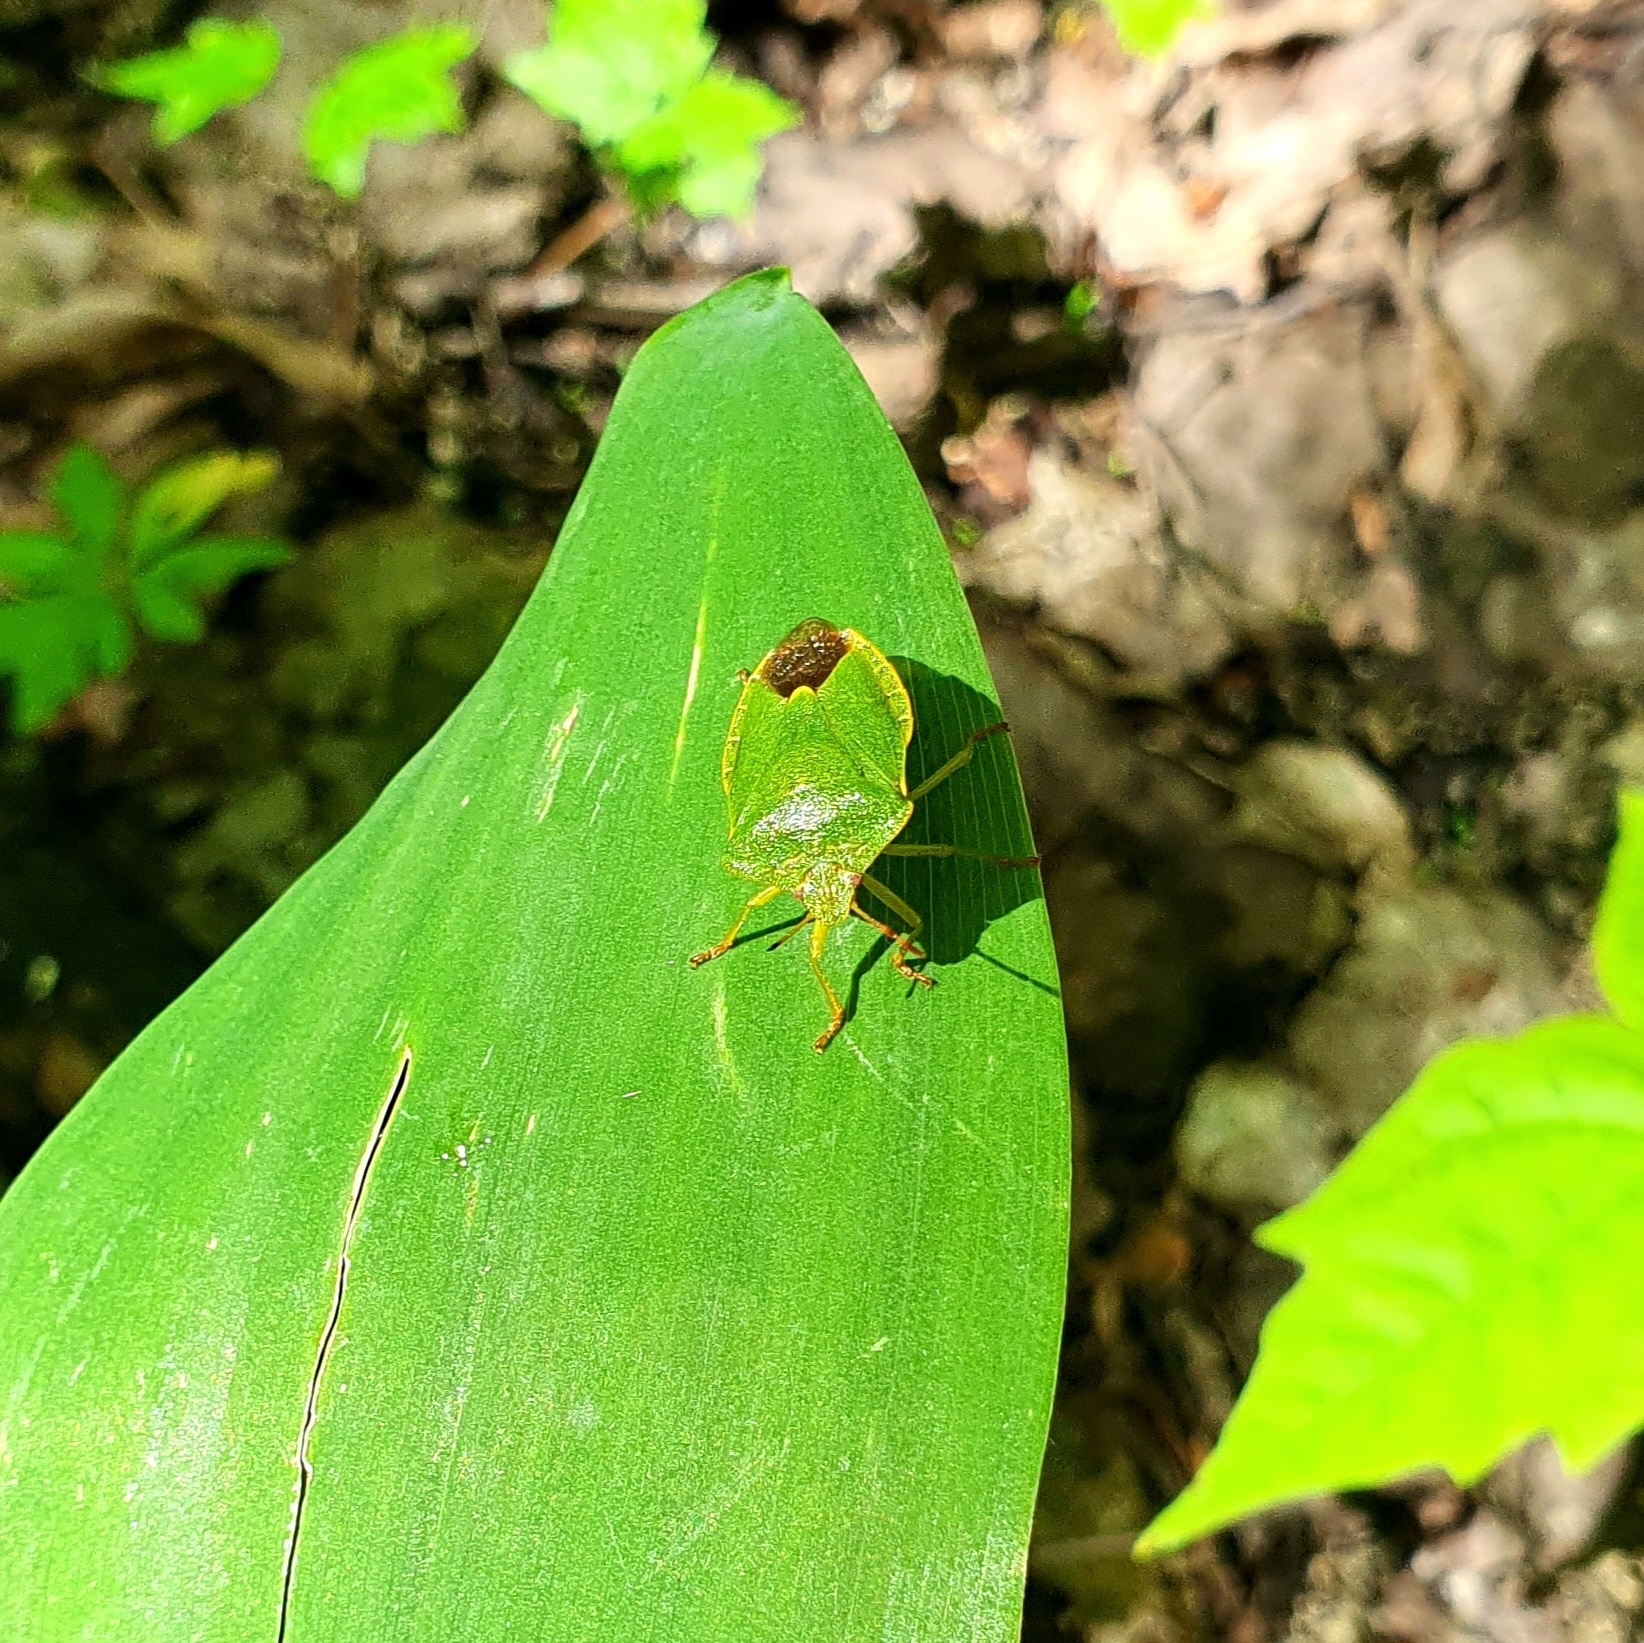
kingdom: Animalia
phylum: Arthropoda
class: Insecta
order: Hemiptera
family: Pentatomidae
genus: Palomena
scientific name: Palomena prasina
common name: Green shieldbug
